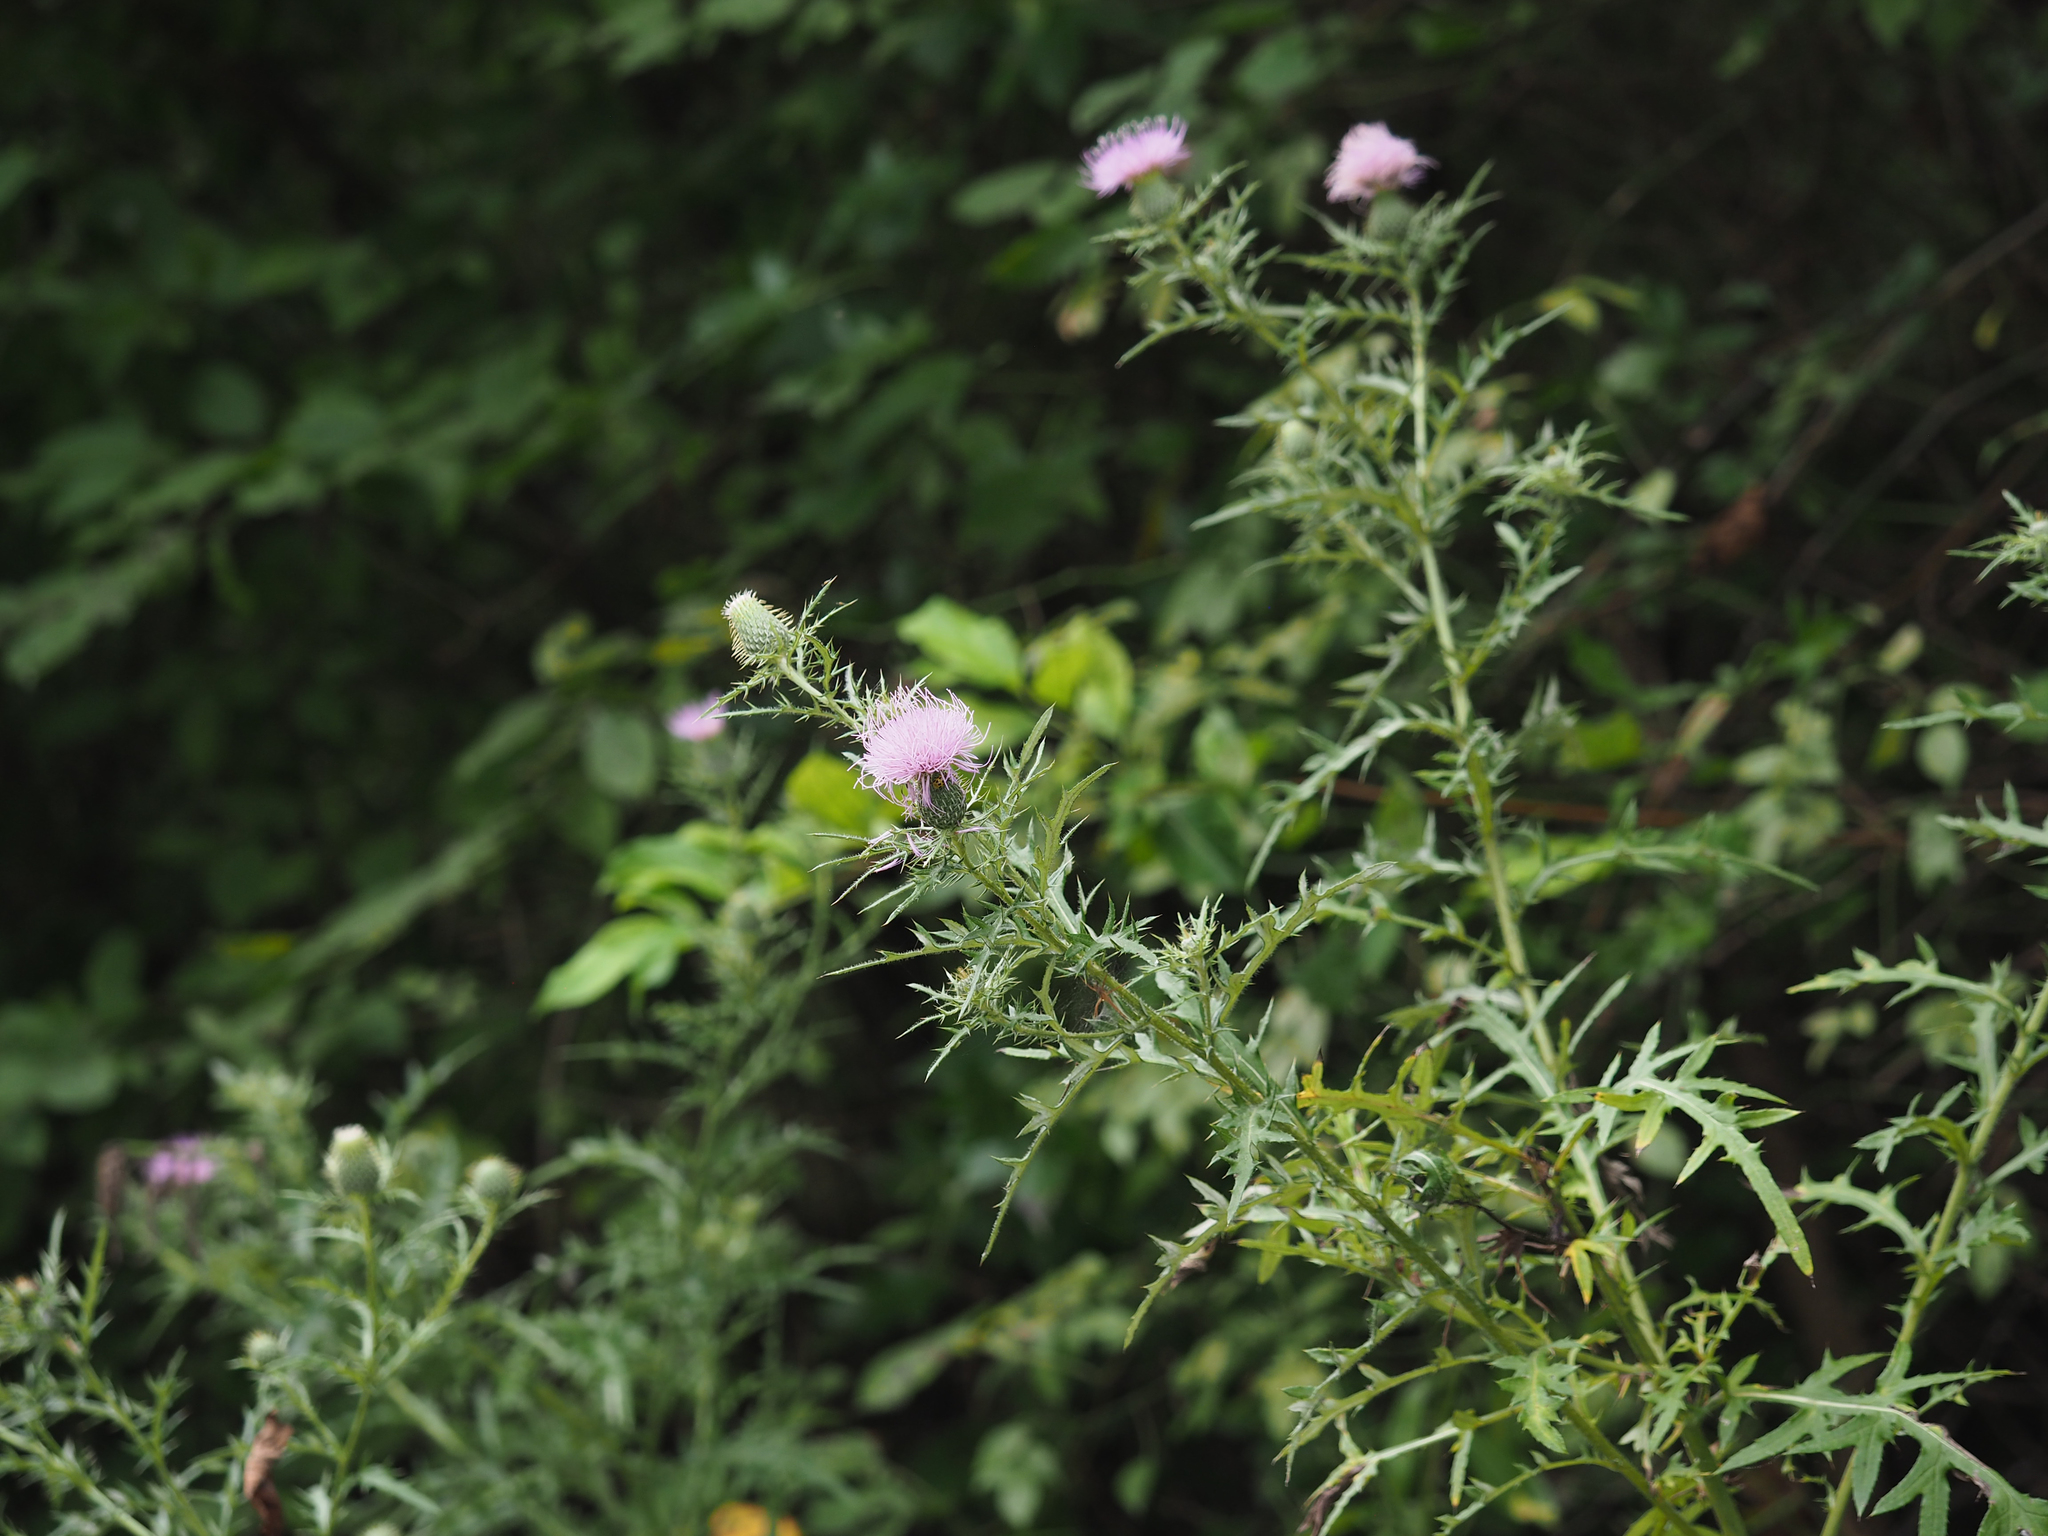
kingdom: Plantae
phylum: Tracheophyta
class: Magnoliopsida
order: Asterales
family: Asteraceae
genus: Cirsium
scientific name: Cirsium discolor
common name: Field thistle
